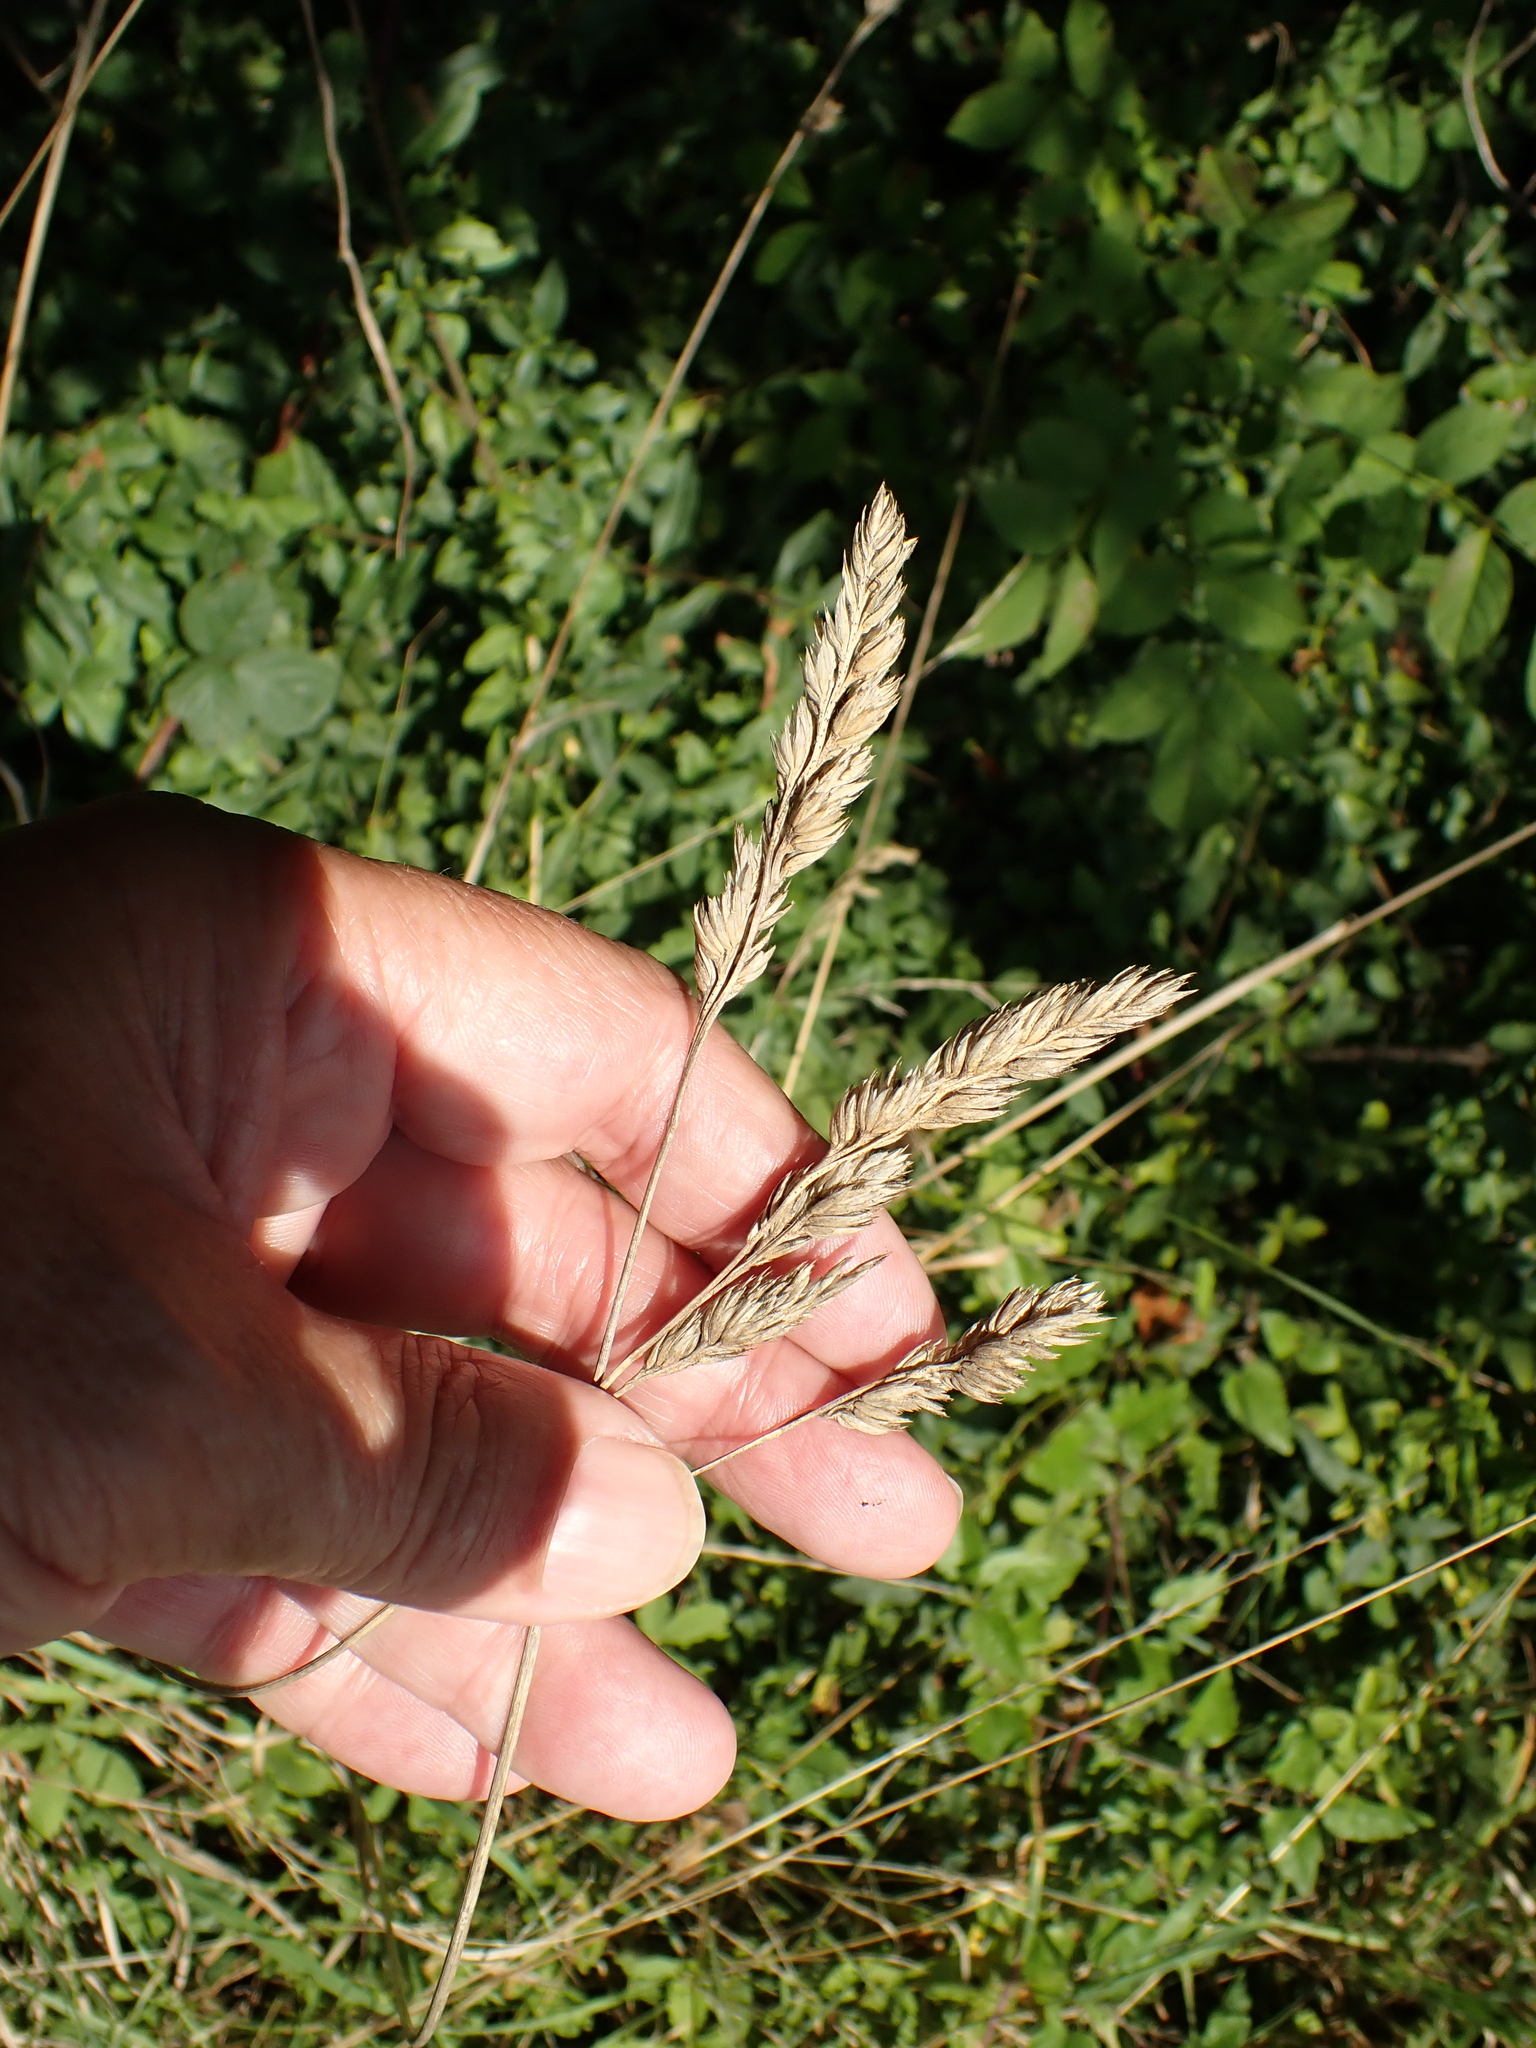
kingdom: Plantae
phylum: Tracheophyta
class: Liliopsida
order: Poales
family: Poaceae
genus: Dactylis
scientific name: Dactylis glomerata
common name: Orchardgrass
